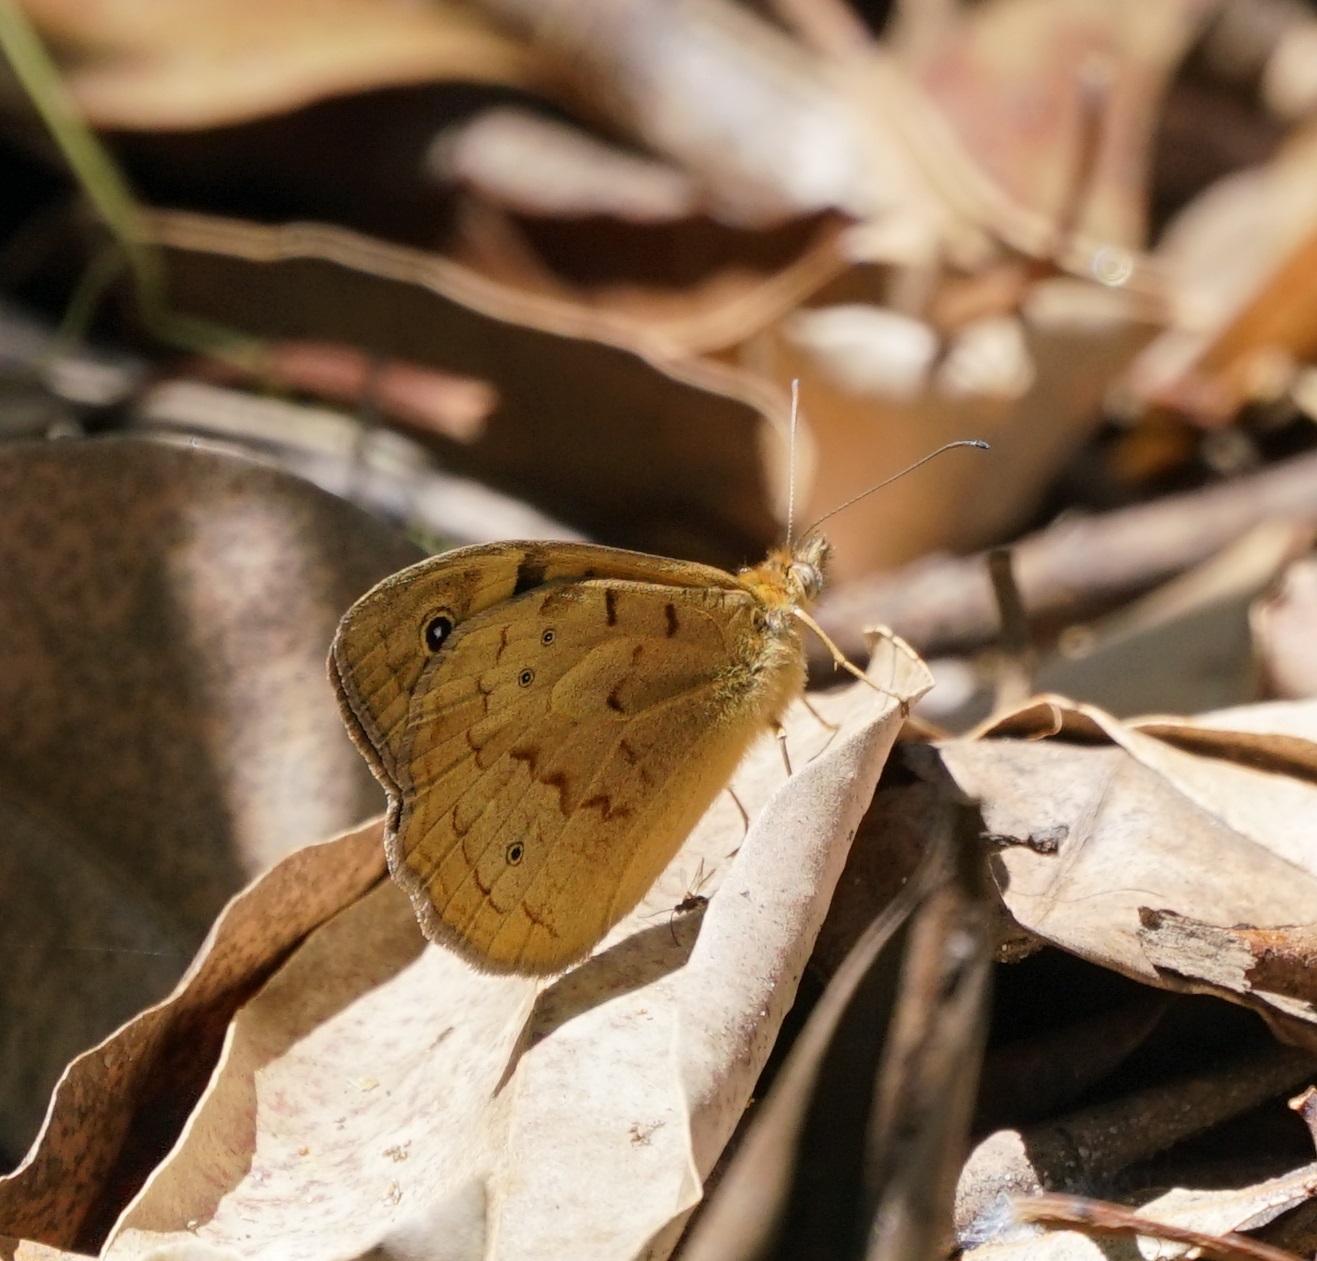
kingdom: Animalia
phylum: Arthropoda
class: Insecta
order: Lepidoptera
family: Nymphalidae
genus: Heteronympha
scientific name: Heteronympha merope
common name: Common brown
